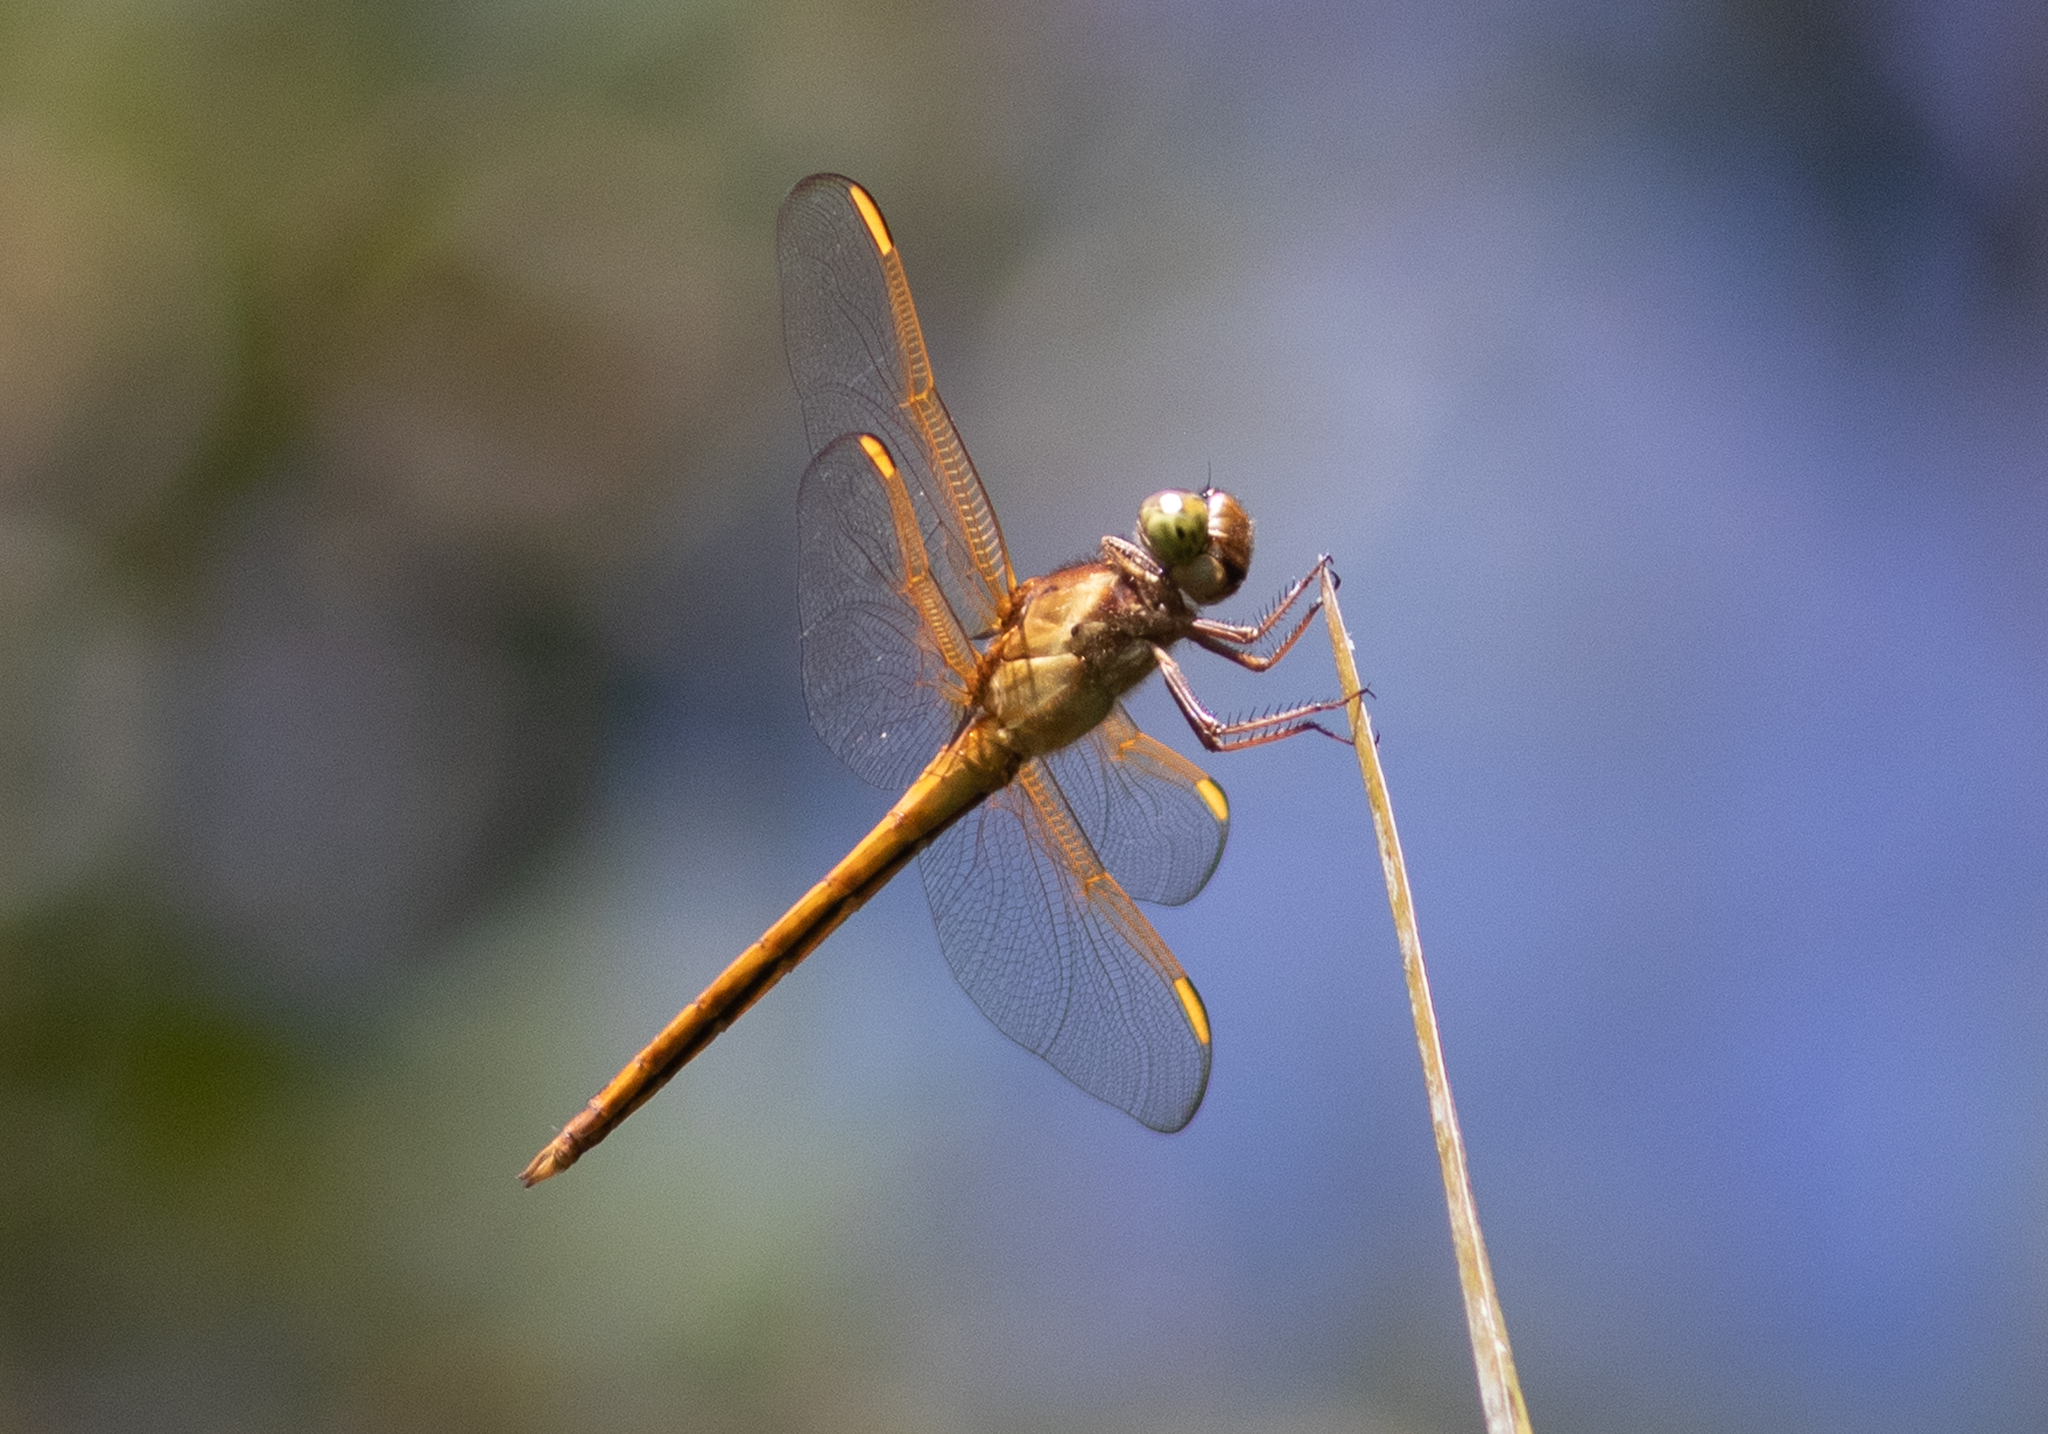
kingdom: Animalia
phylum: Arthropoda
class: Insecta
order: Odonata
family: Libellulidae
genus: Libellula
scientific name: Libellula needhami
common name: Needham's skimmer
